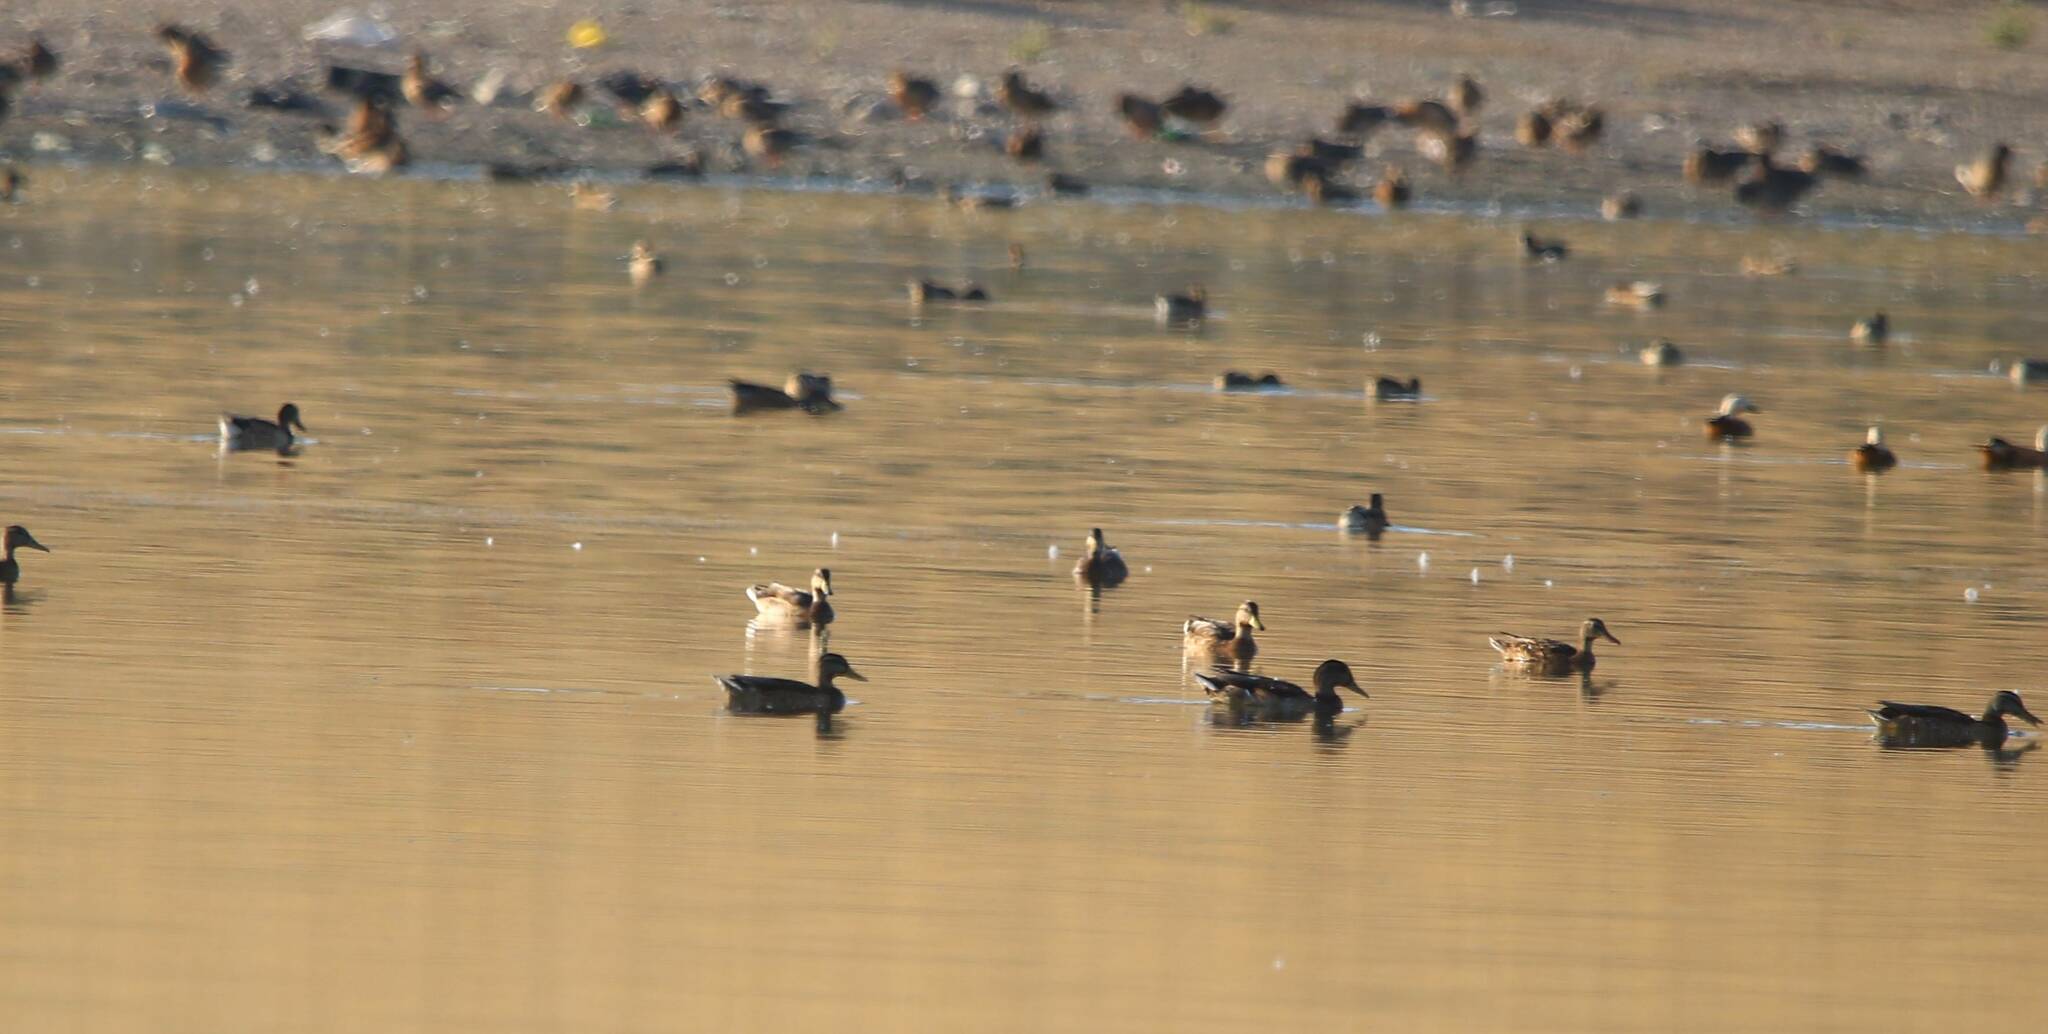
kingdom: Animalia
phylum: Chordata
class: Aves
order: Anseriformes
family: Anatidae
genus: Anas
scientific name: Anas platyrhynchos
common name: Mallard
